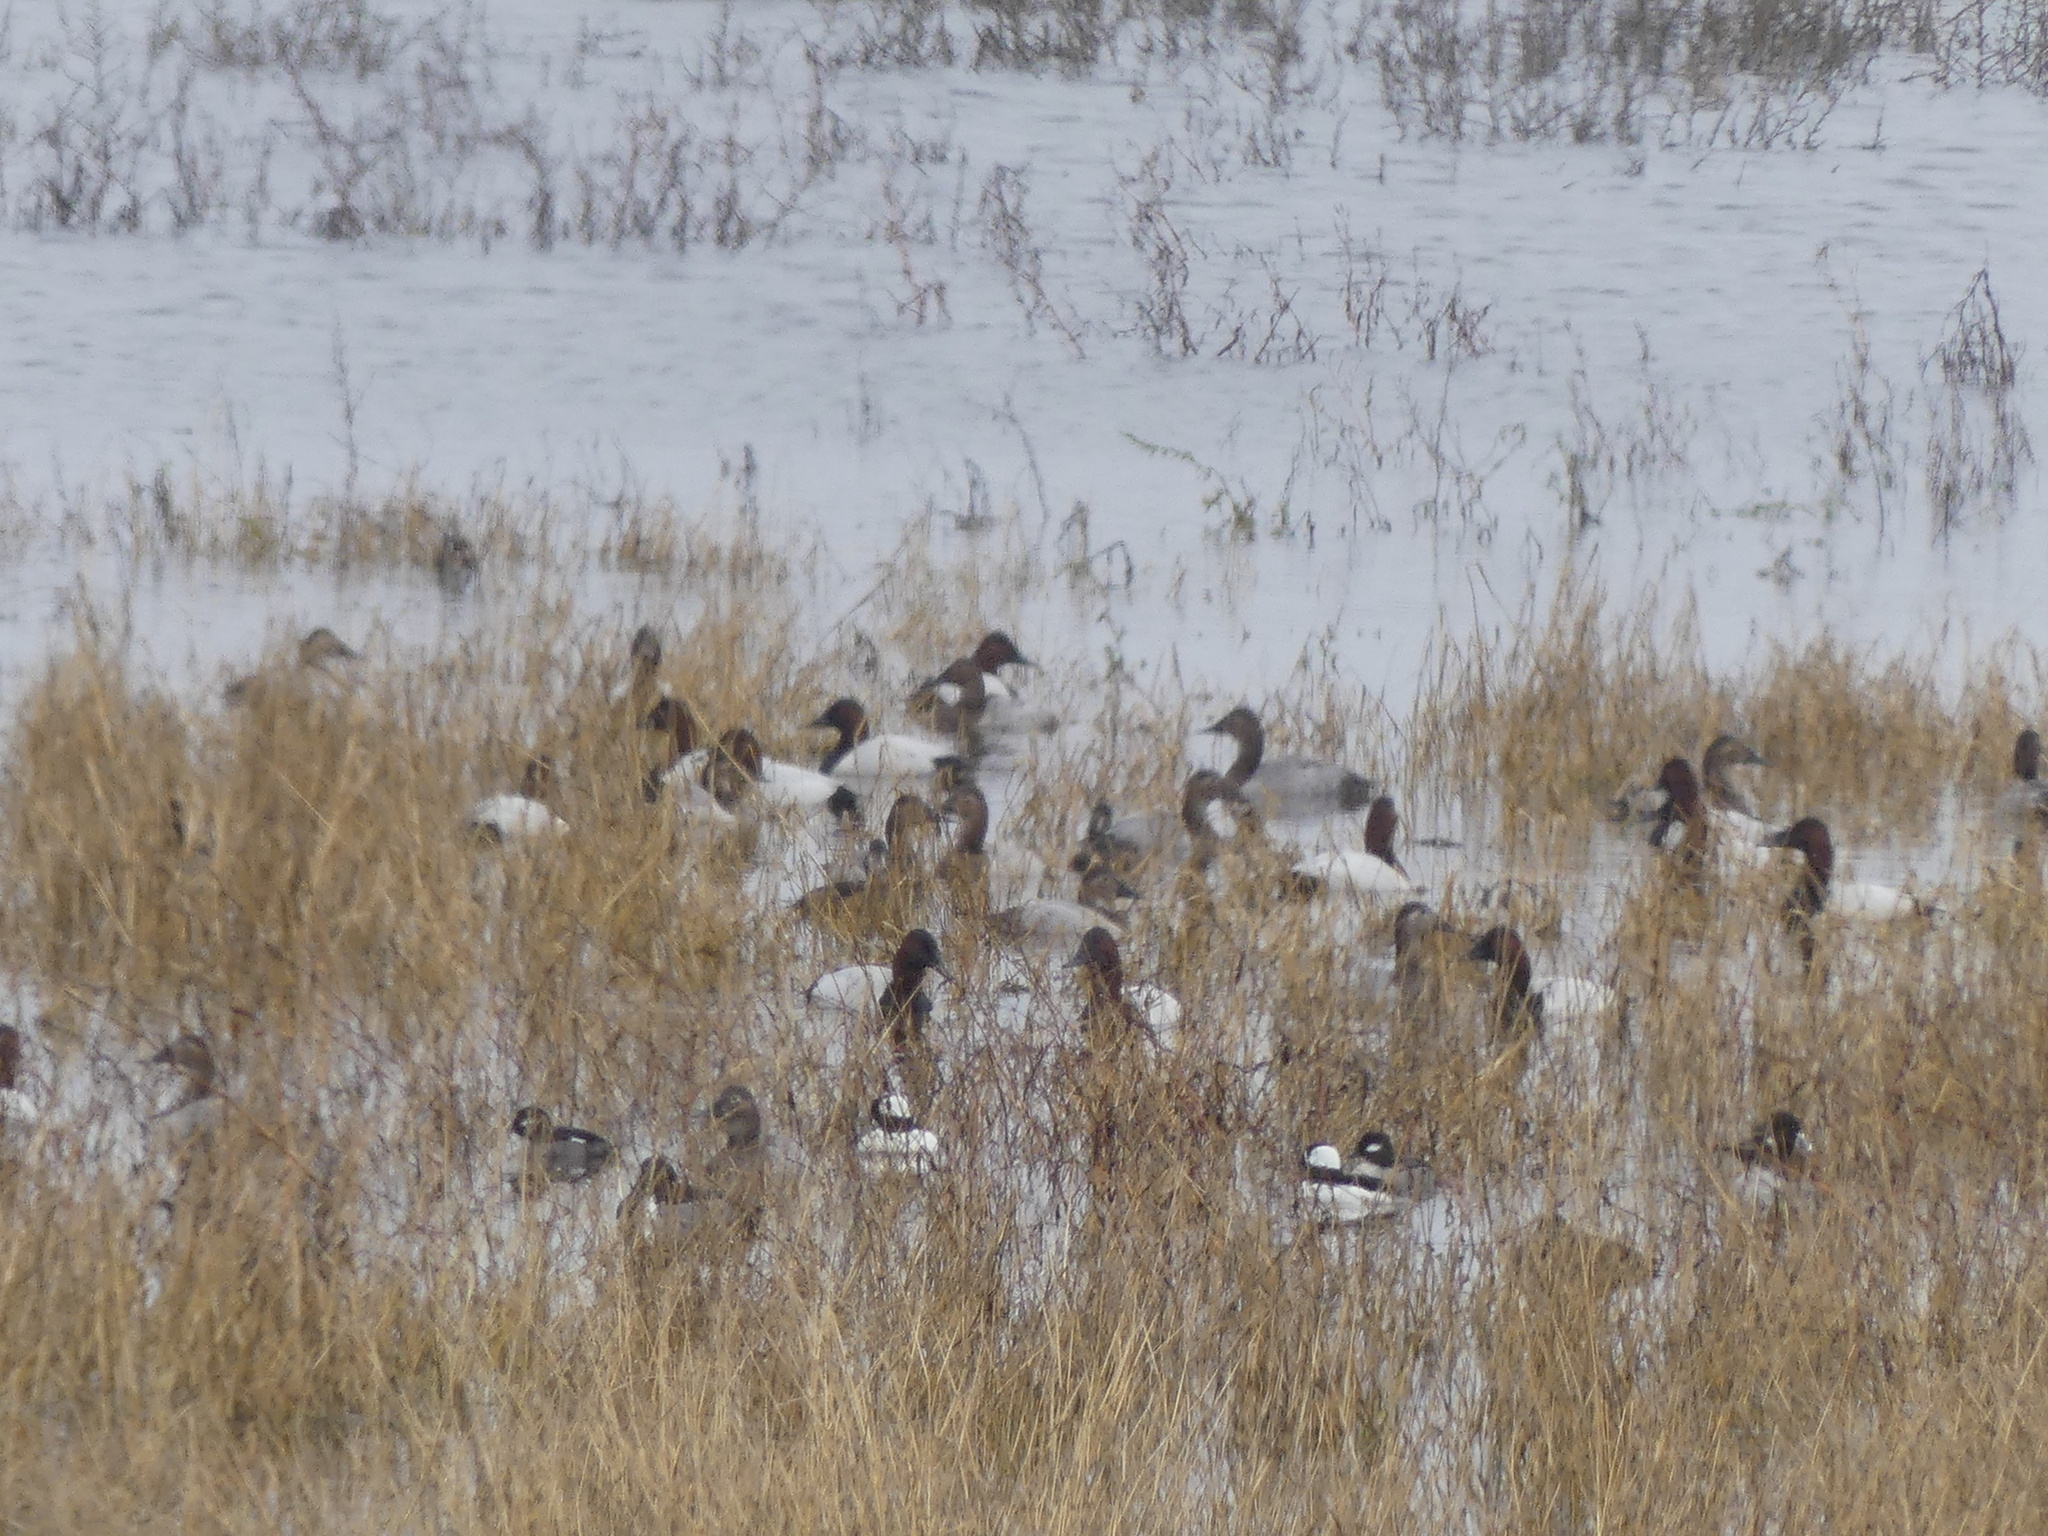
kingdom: Animalia
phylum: Chordata
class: Aves
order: Anseriformes
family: Anatidae
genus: Aythya
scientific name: Aythya valisineria
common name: Canvasback
